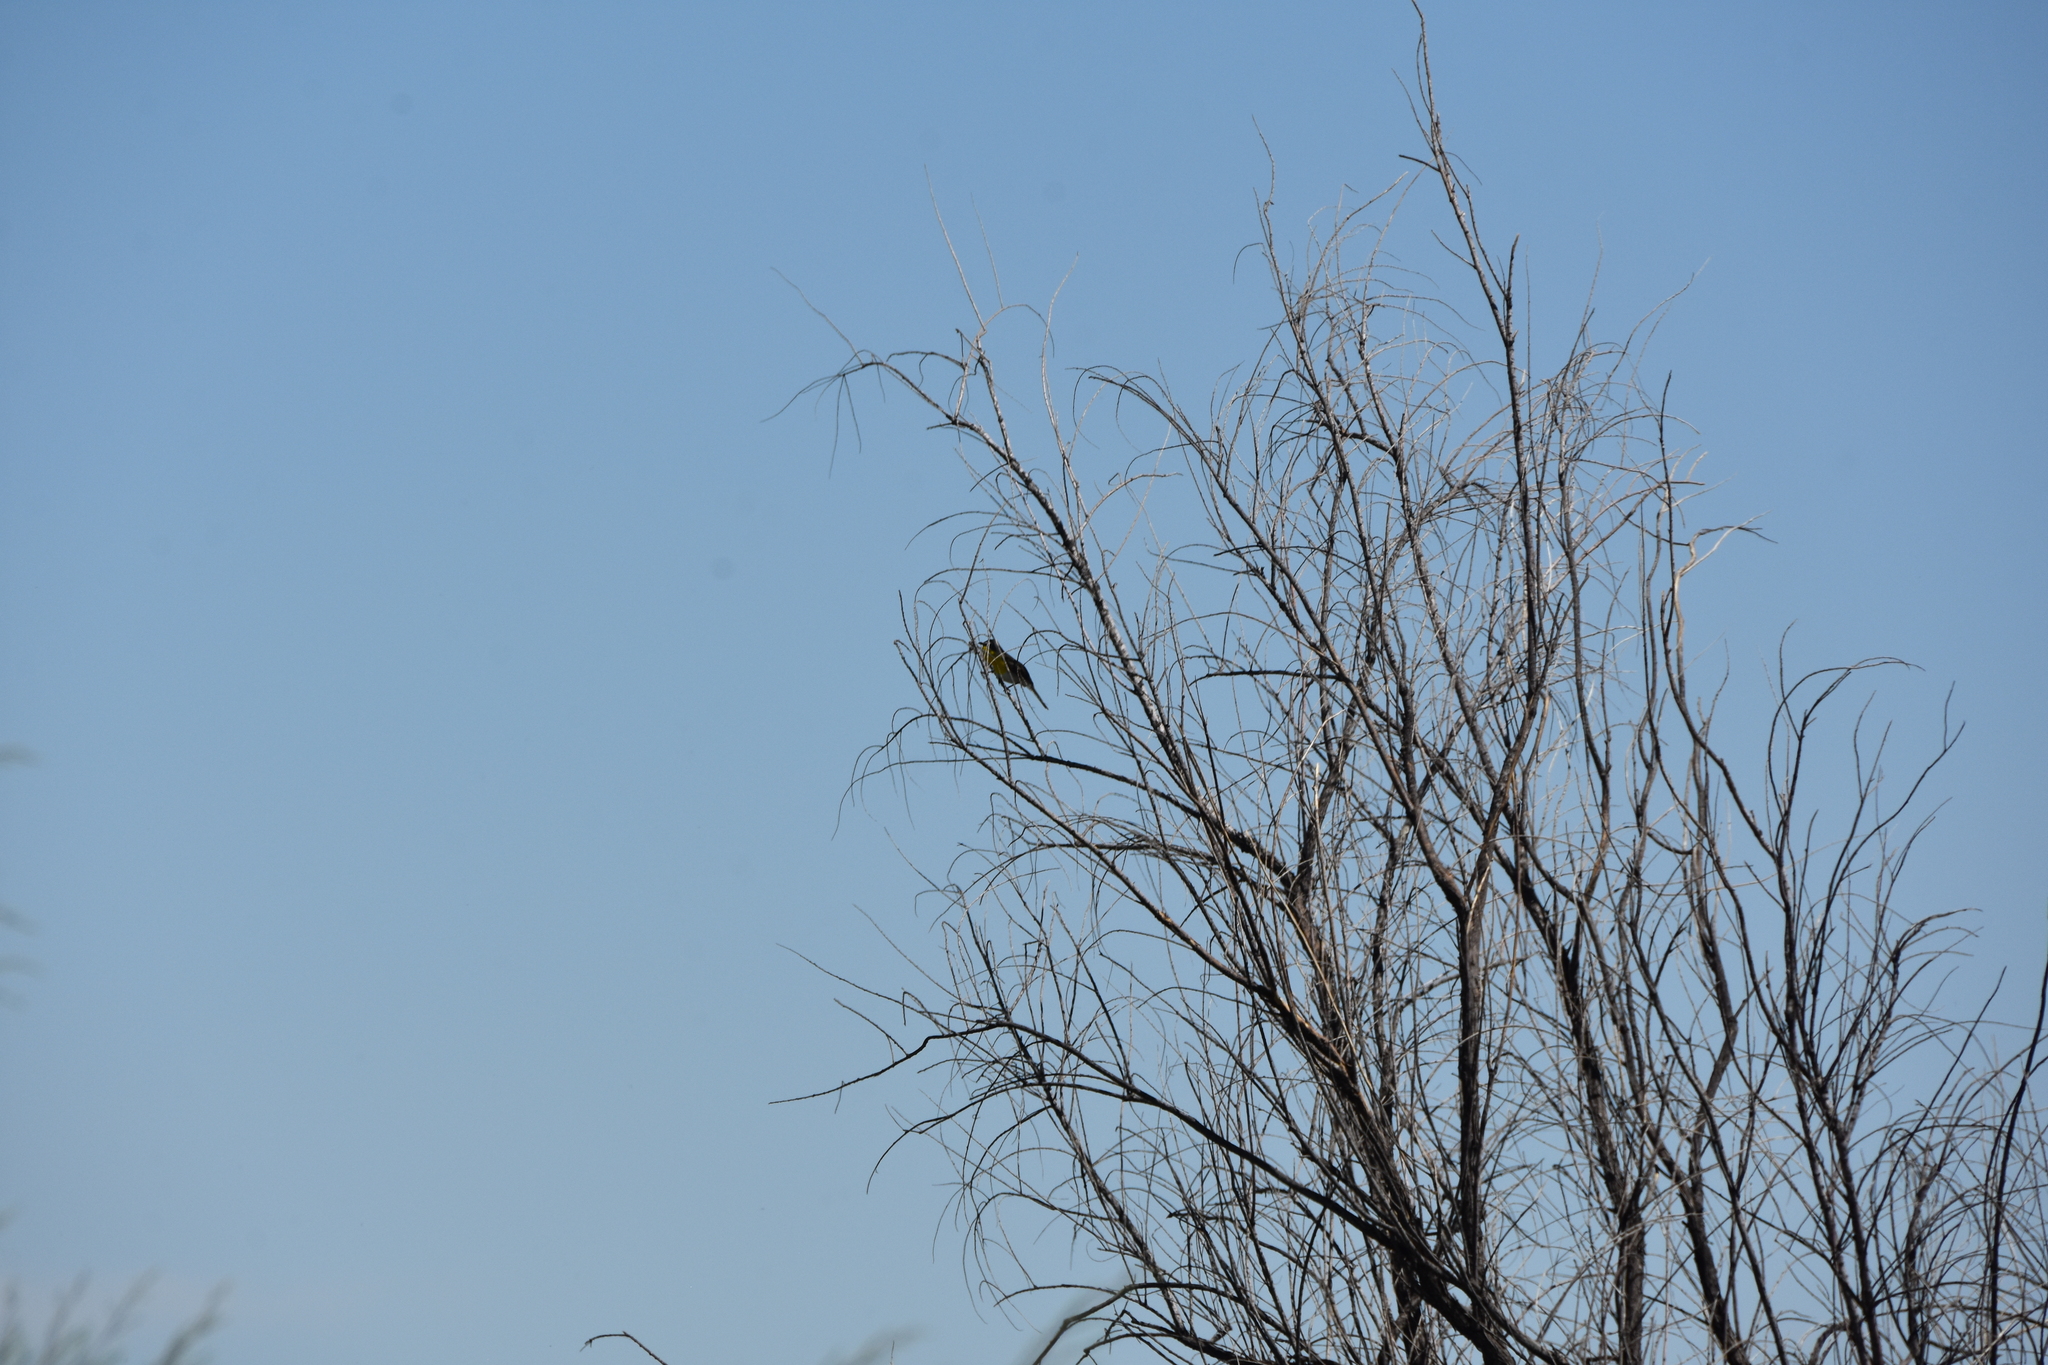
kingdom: Animalia
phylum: Chordata
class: Aves
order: Passeriformes
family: Parulidae
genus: Icteria
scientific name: Icteria virens
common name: Yellow-breasted chat
